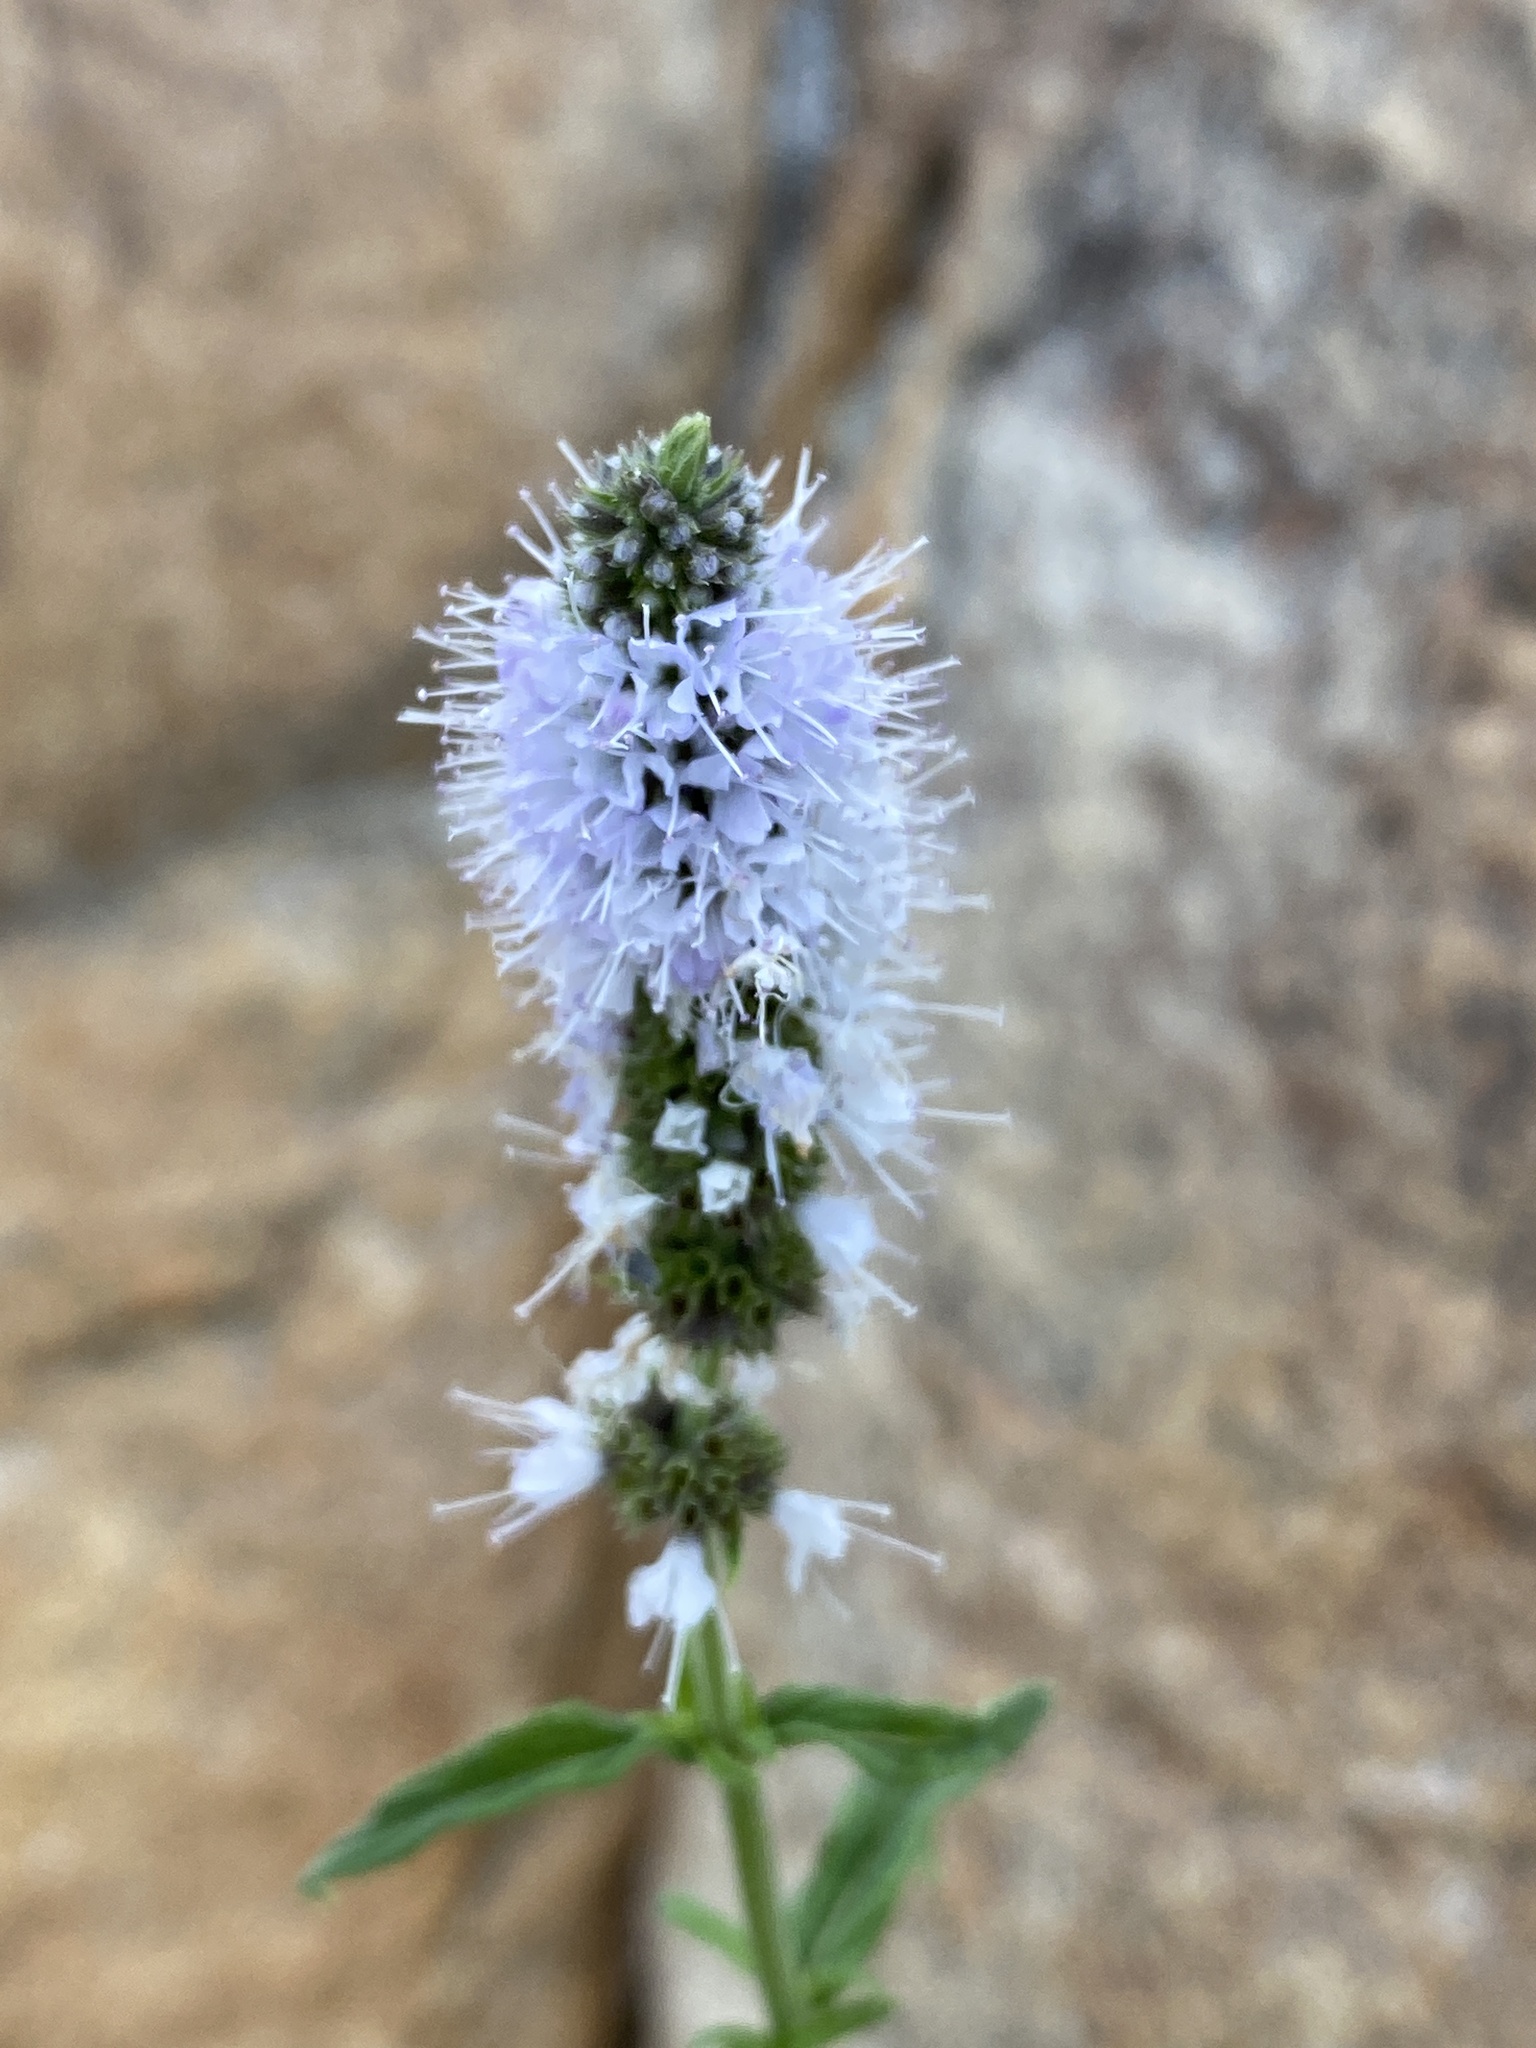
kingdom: Plantae
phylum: Tracheophyta
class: Magnoliopsida
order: Lamiales
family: Lamiaceae
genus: Mentha
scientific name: Mentha longifolia
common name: Horse mint
